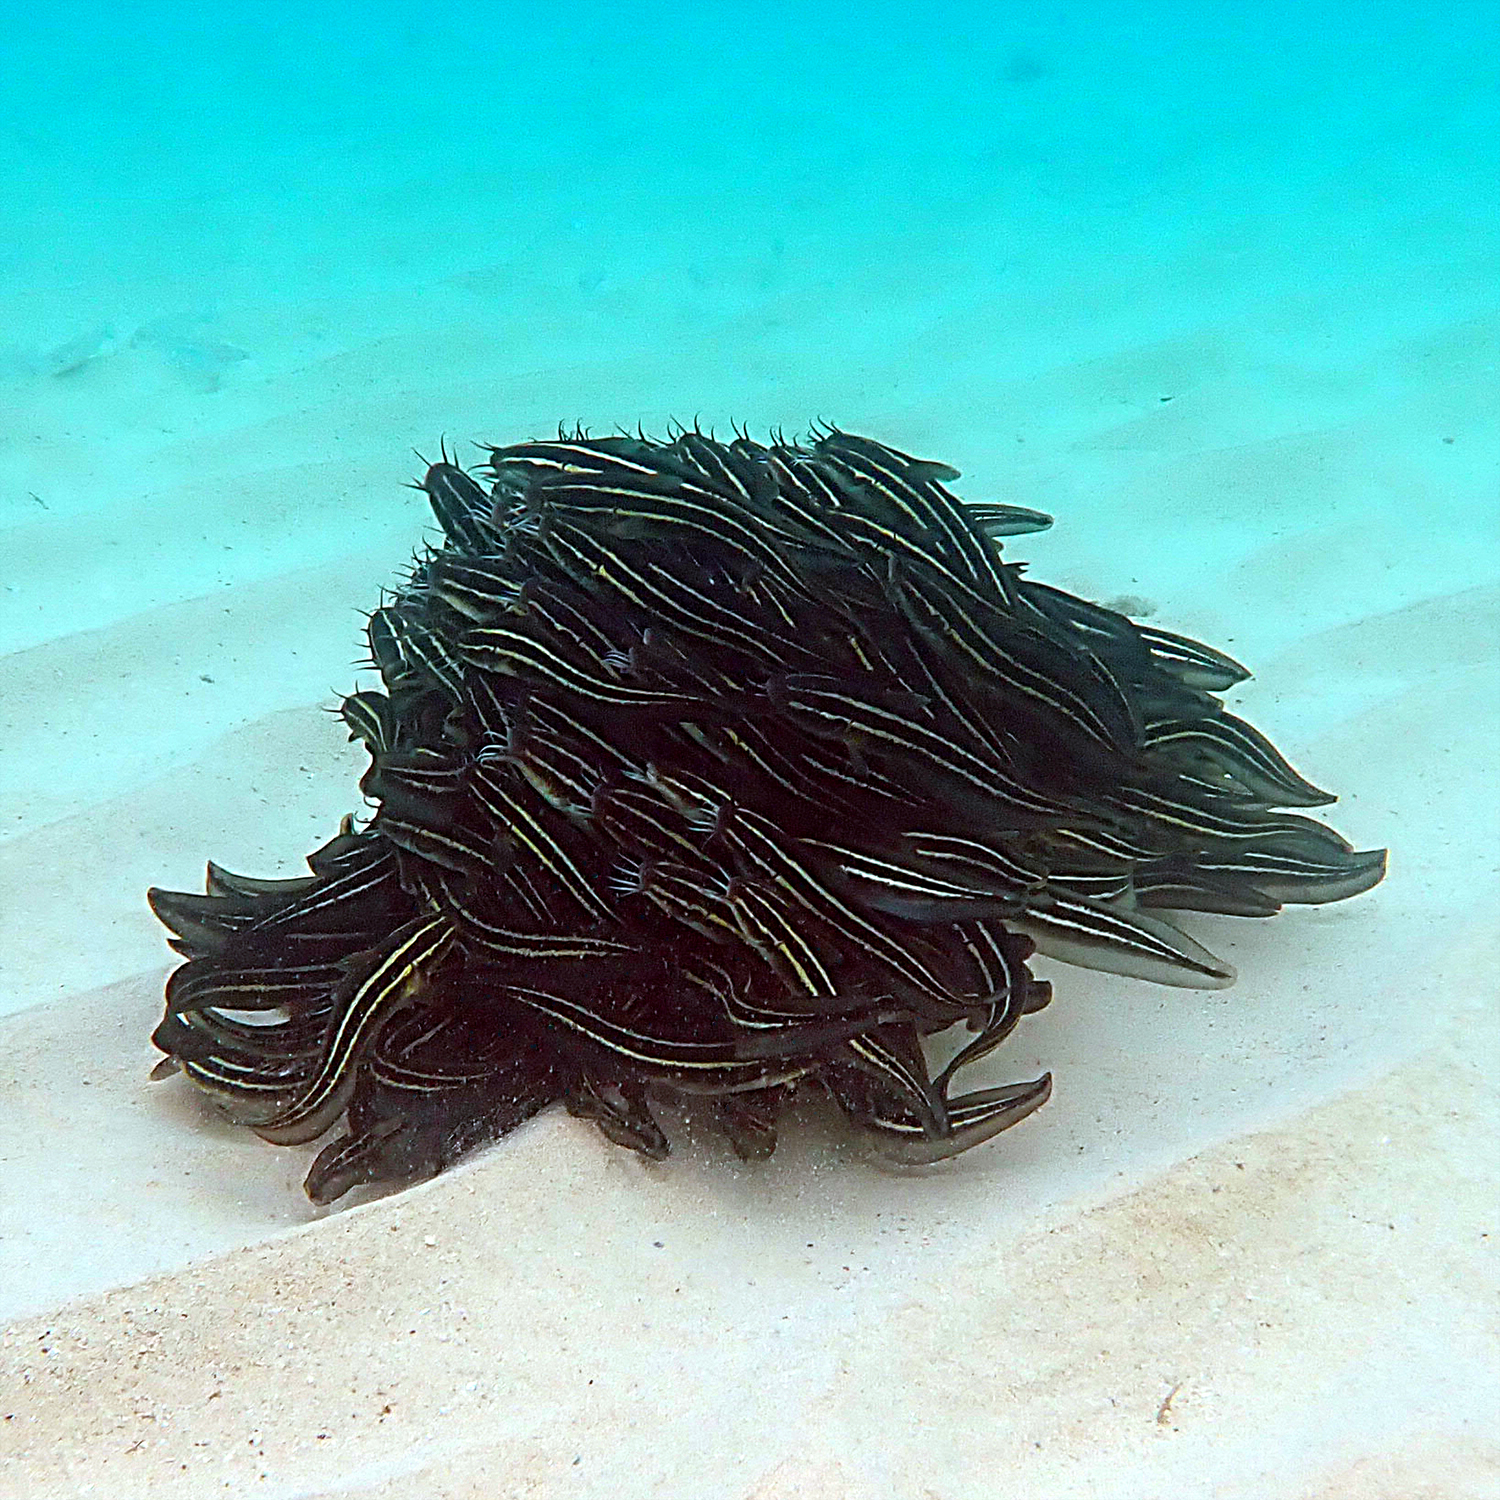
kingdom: Animalia
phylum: Chordata
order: Siluriformes
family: Plotosidae
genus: Plotosus
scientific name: Plotosus lineatus
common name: Striped eel catfish
